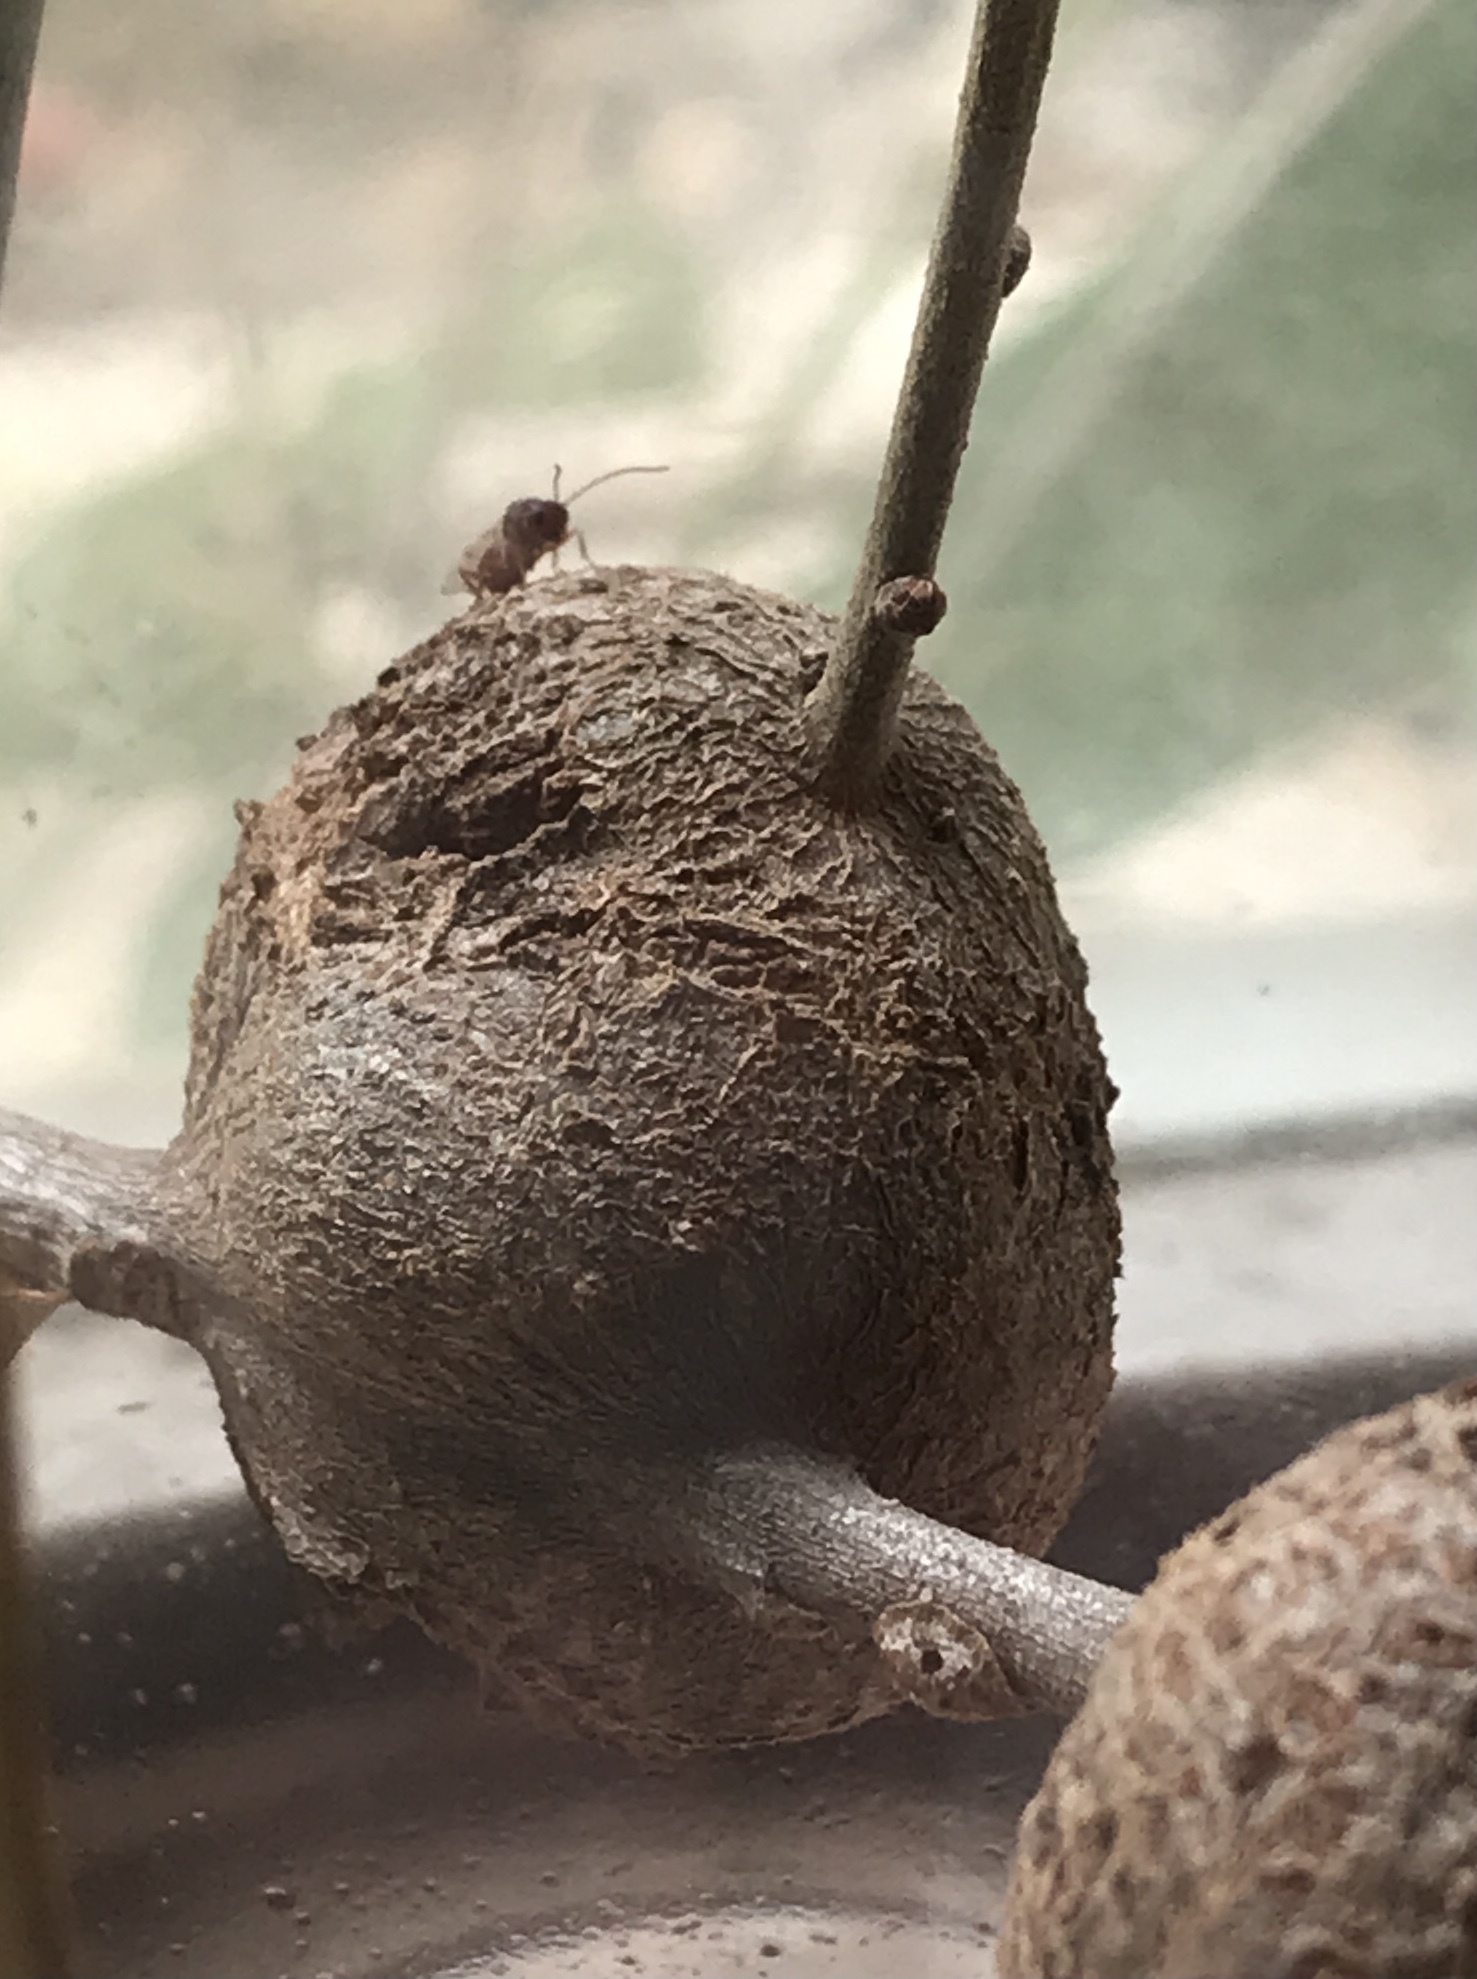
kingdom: Animalia
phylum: Arthropoda
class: Insecta
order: Hymenoptera
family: Cynipidae
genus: Callirhytis
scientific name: Callirhytis
